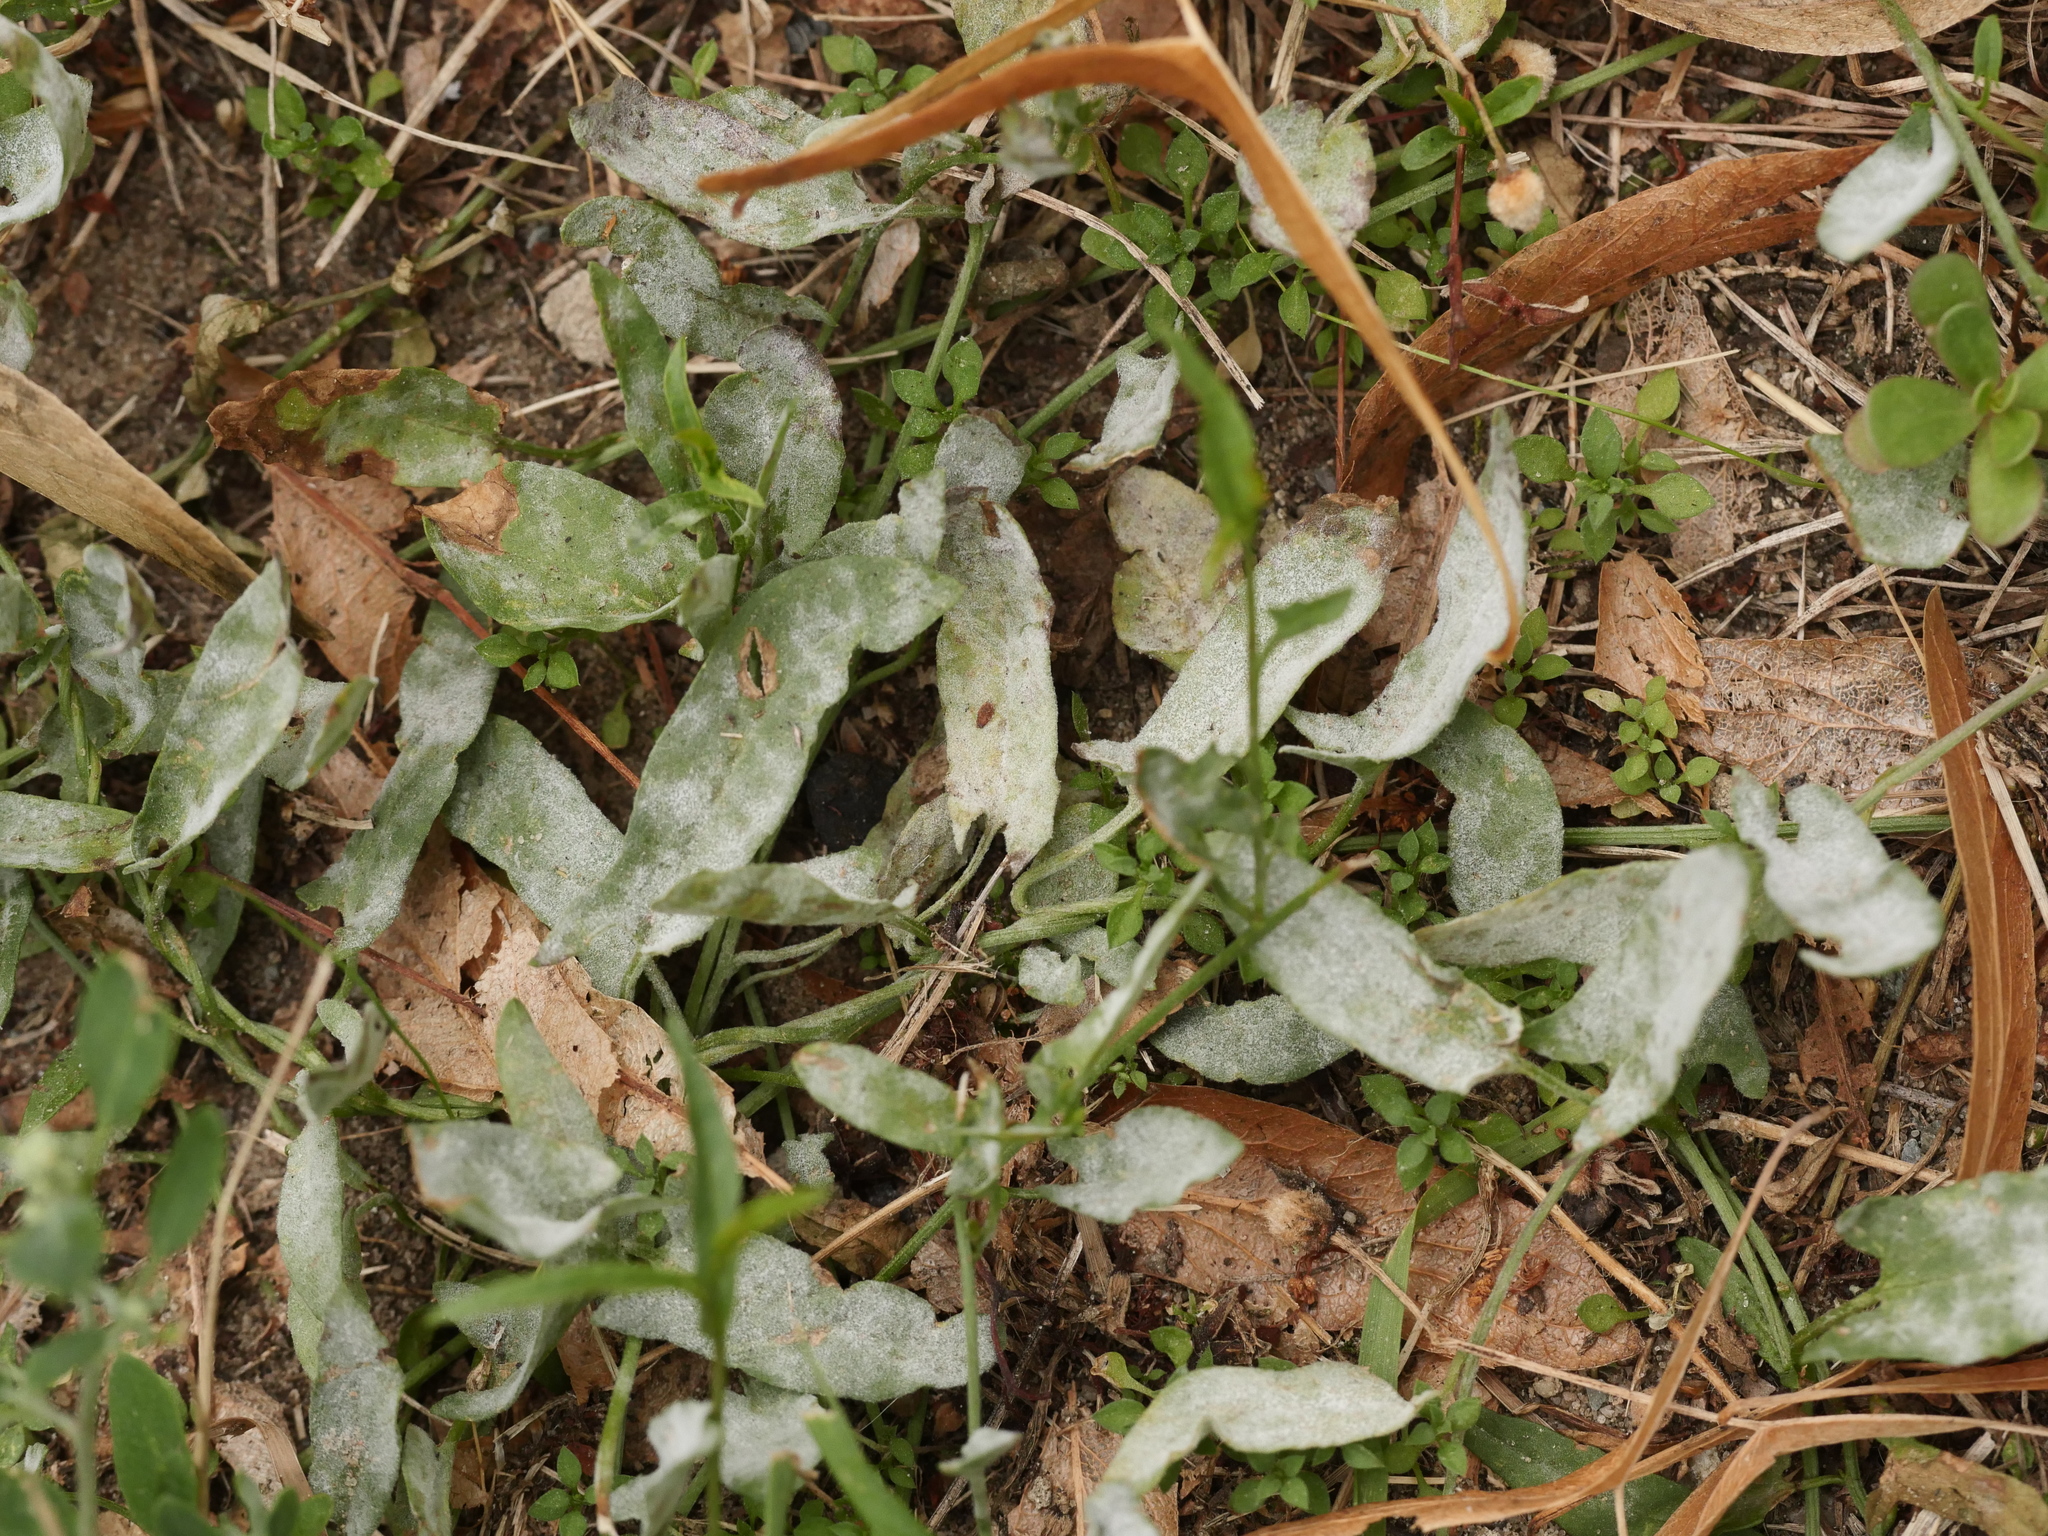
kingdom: Fungi
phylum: Ascomycota
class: Leotiomycetes
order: Helotiales
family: Erysiphaceae
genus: Erysiphe
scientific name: Erysiphe polygoni
